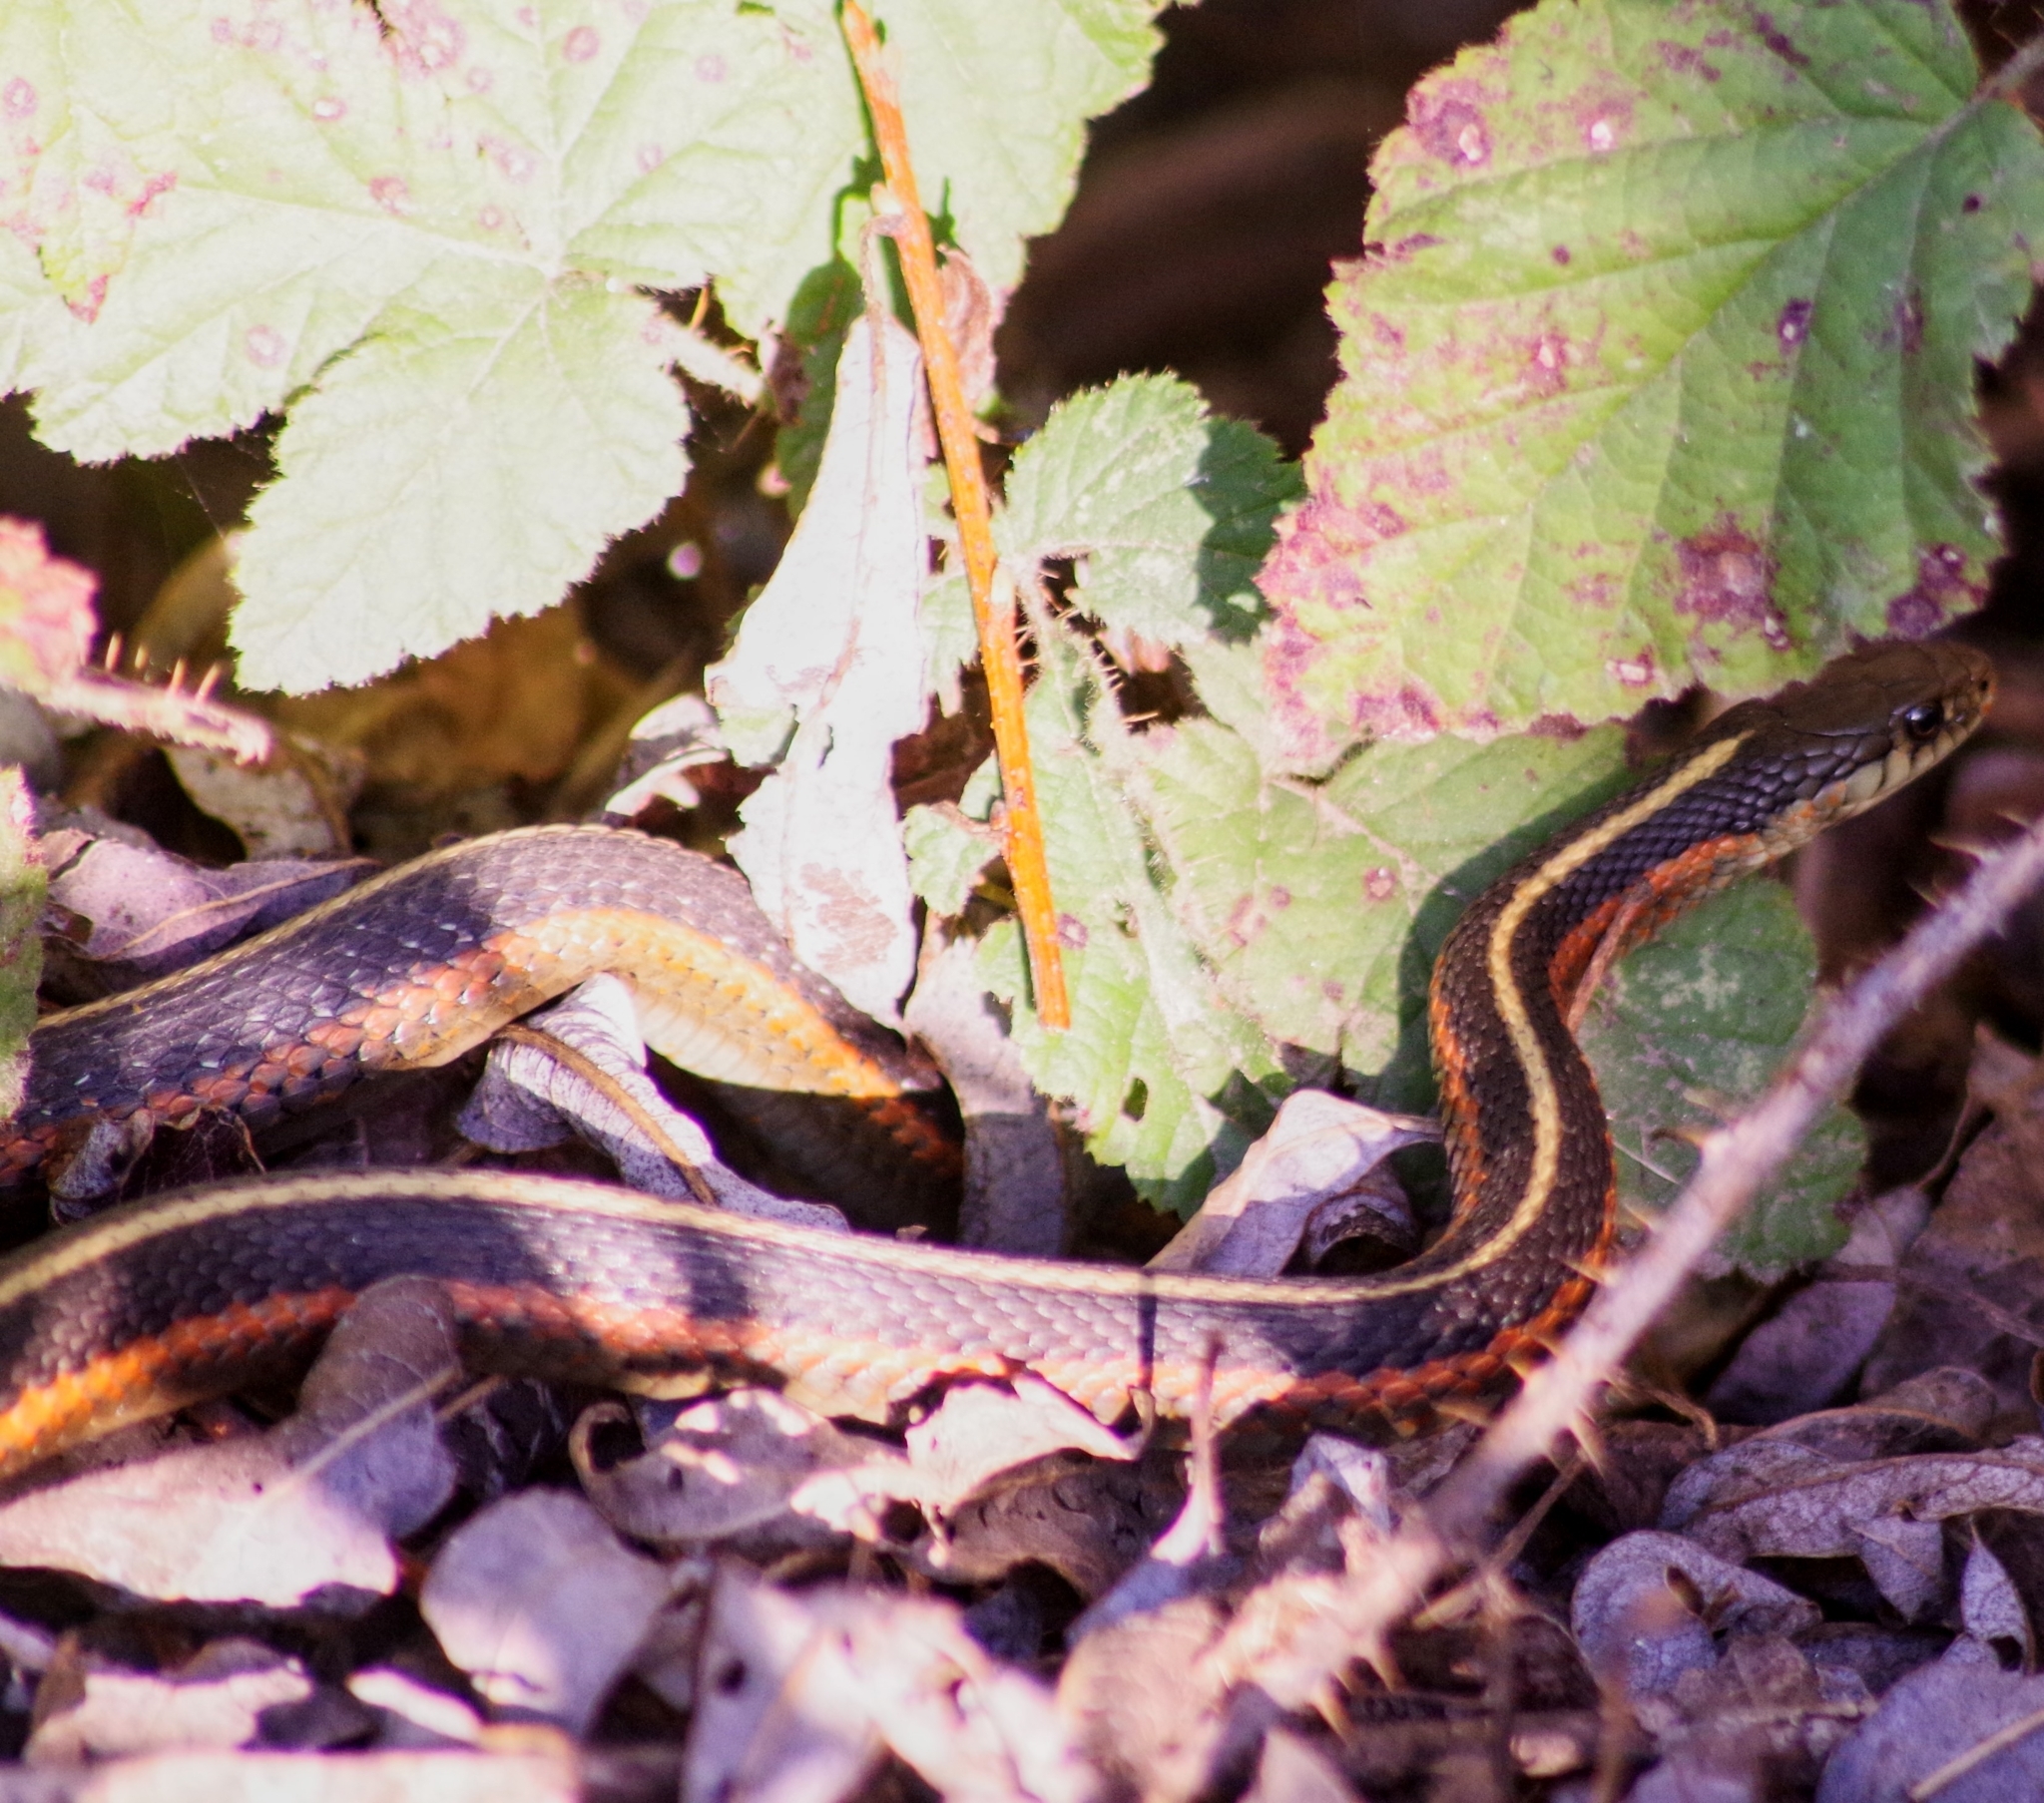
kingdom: Animalia
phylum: Chordata
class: Squamata
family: Colubridae
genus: Thamnophis
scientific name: Thamnophis elegans
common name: Western terrestrial garter snake
